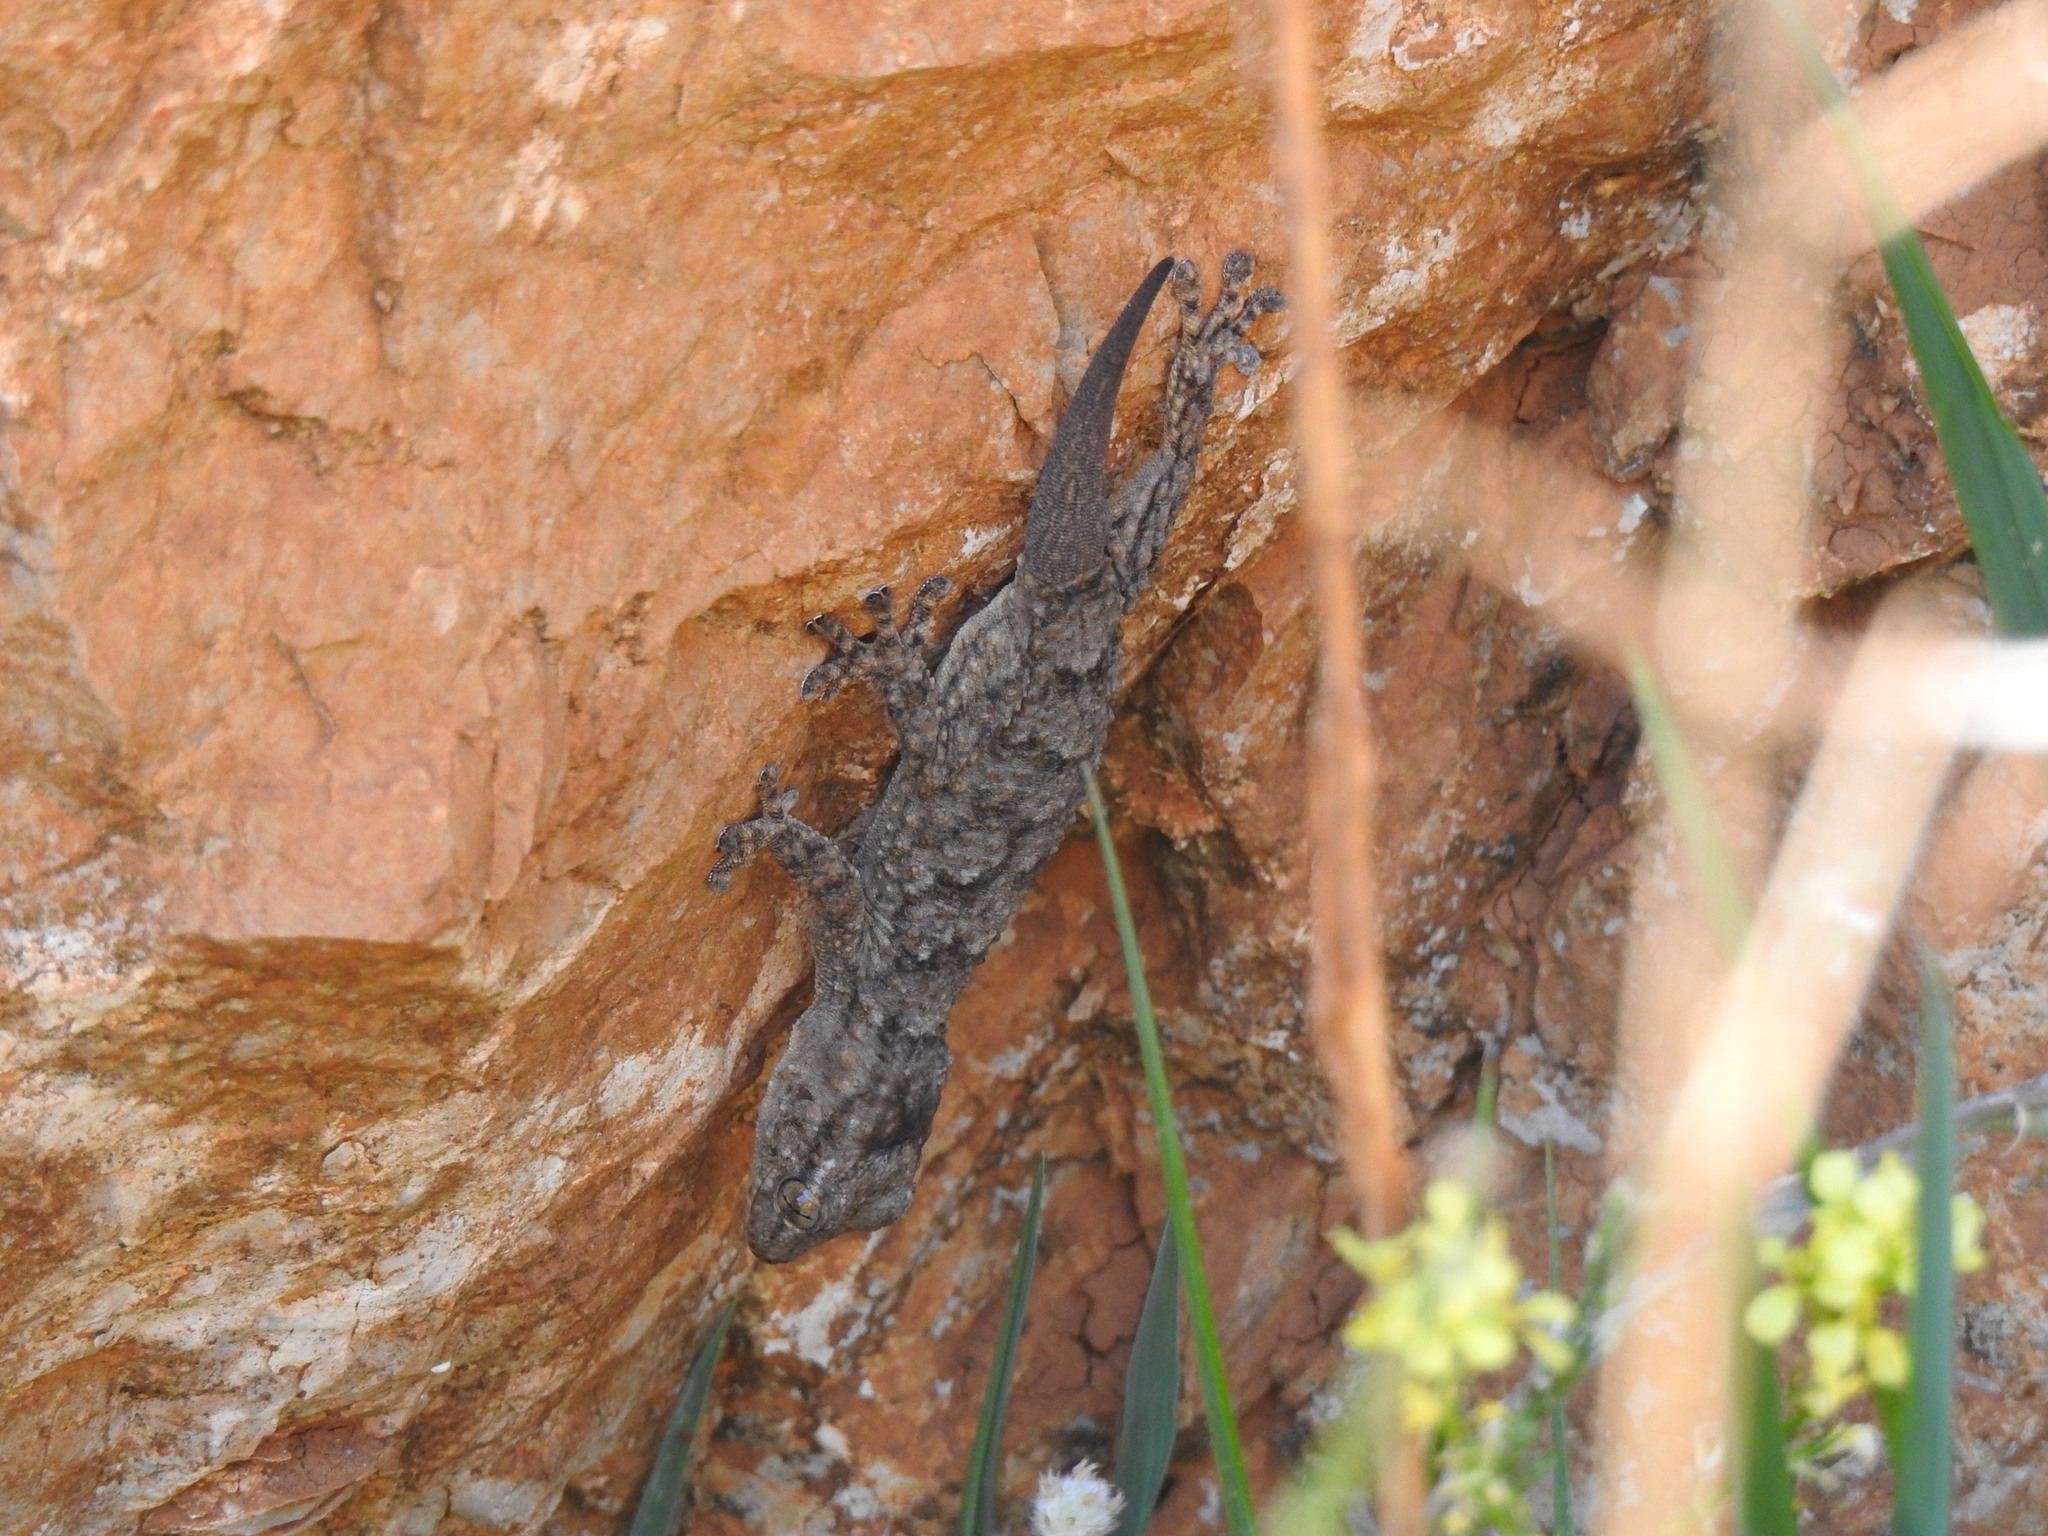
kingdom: Animalia
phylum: Chordata
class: Squamata
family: Phyllodactylidae
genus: Tarentola
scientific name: Tarentola mauritanica
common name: Moorish gecko
